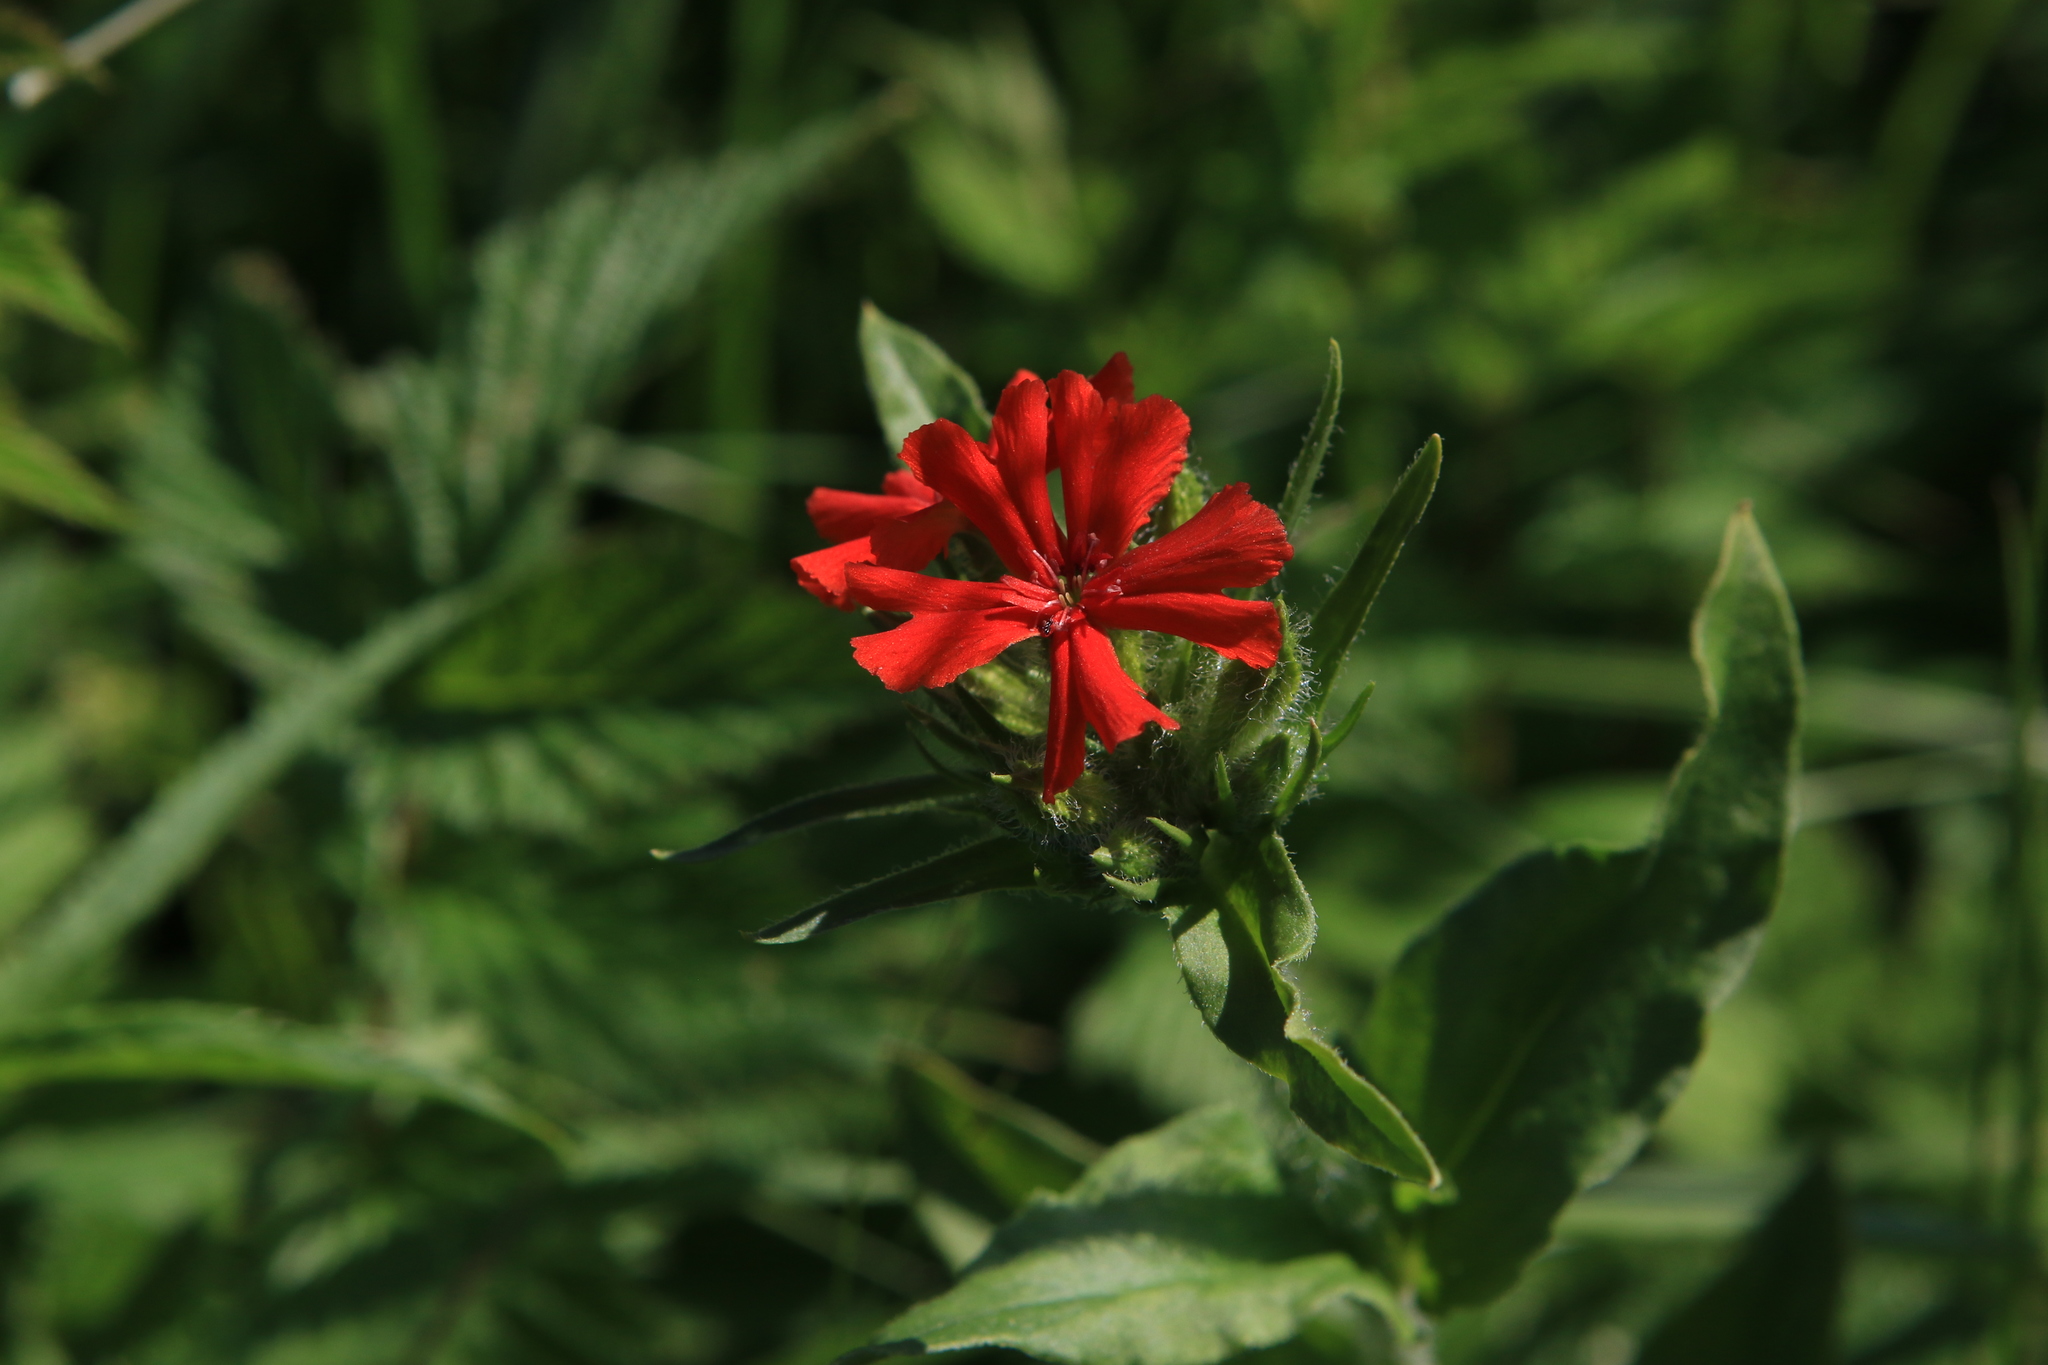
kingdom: Plantae
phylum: Tracheophyta
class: Magnoliopsida
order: Caryophyllales
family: Caryophyllaceae
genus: Silene
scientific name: Silene chalcedonica
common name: Maltese-cross
